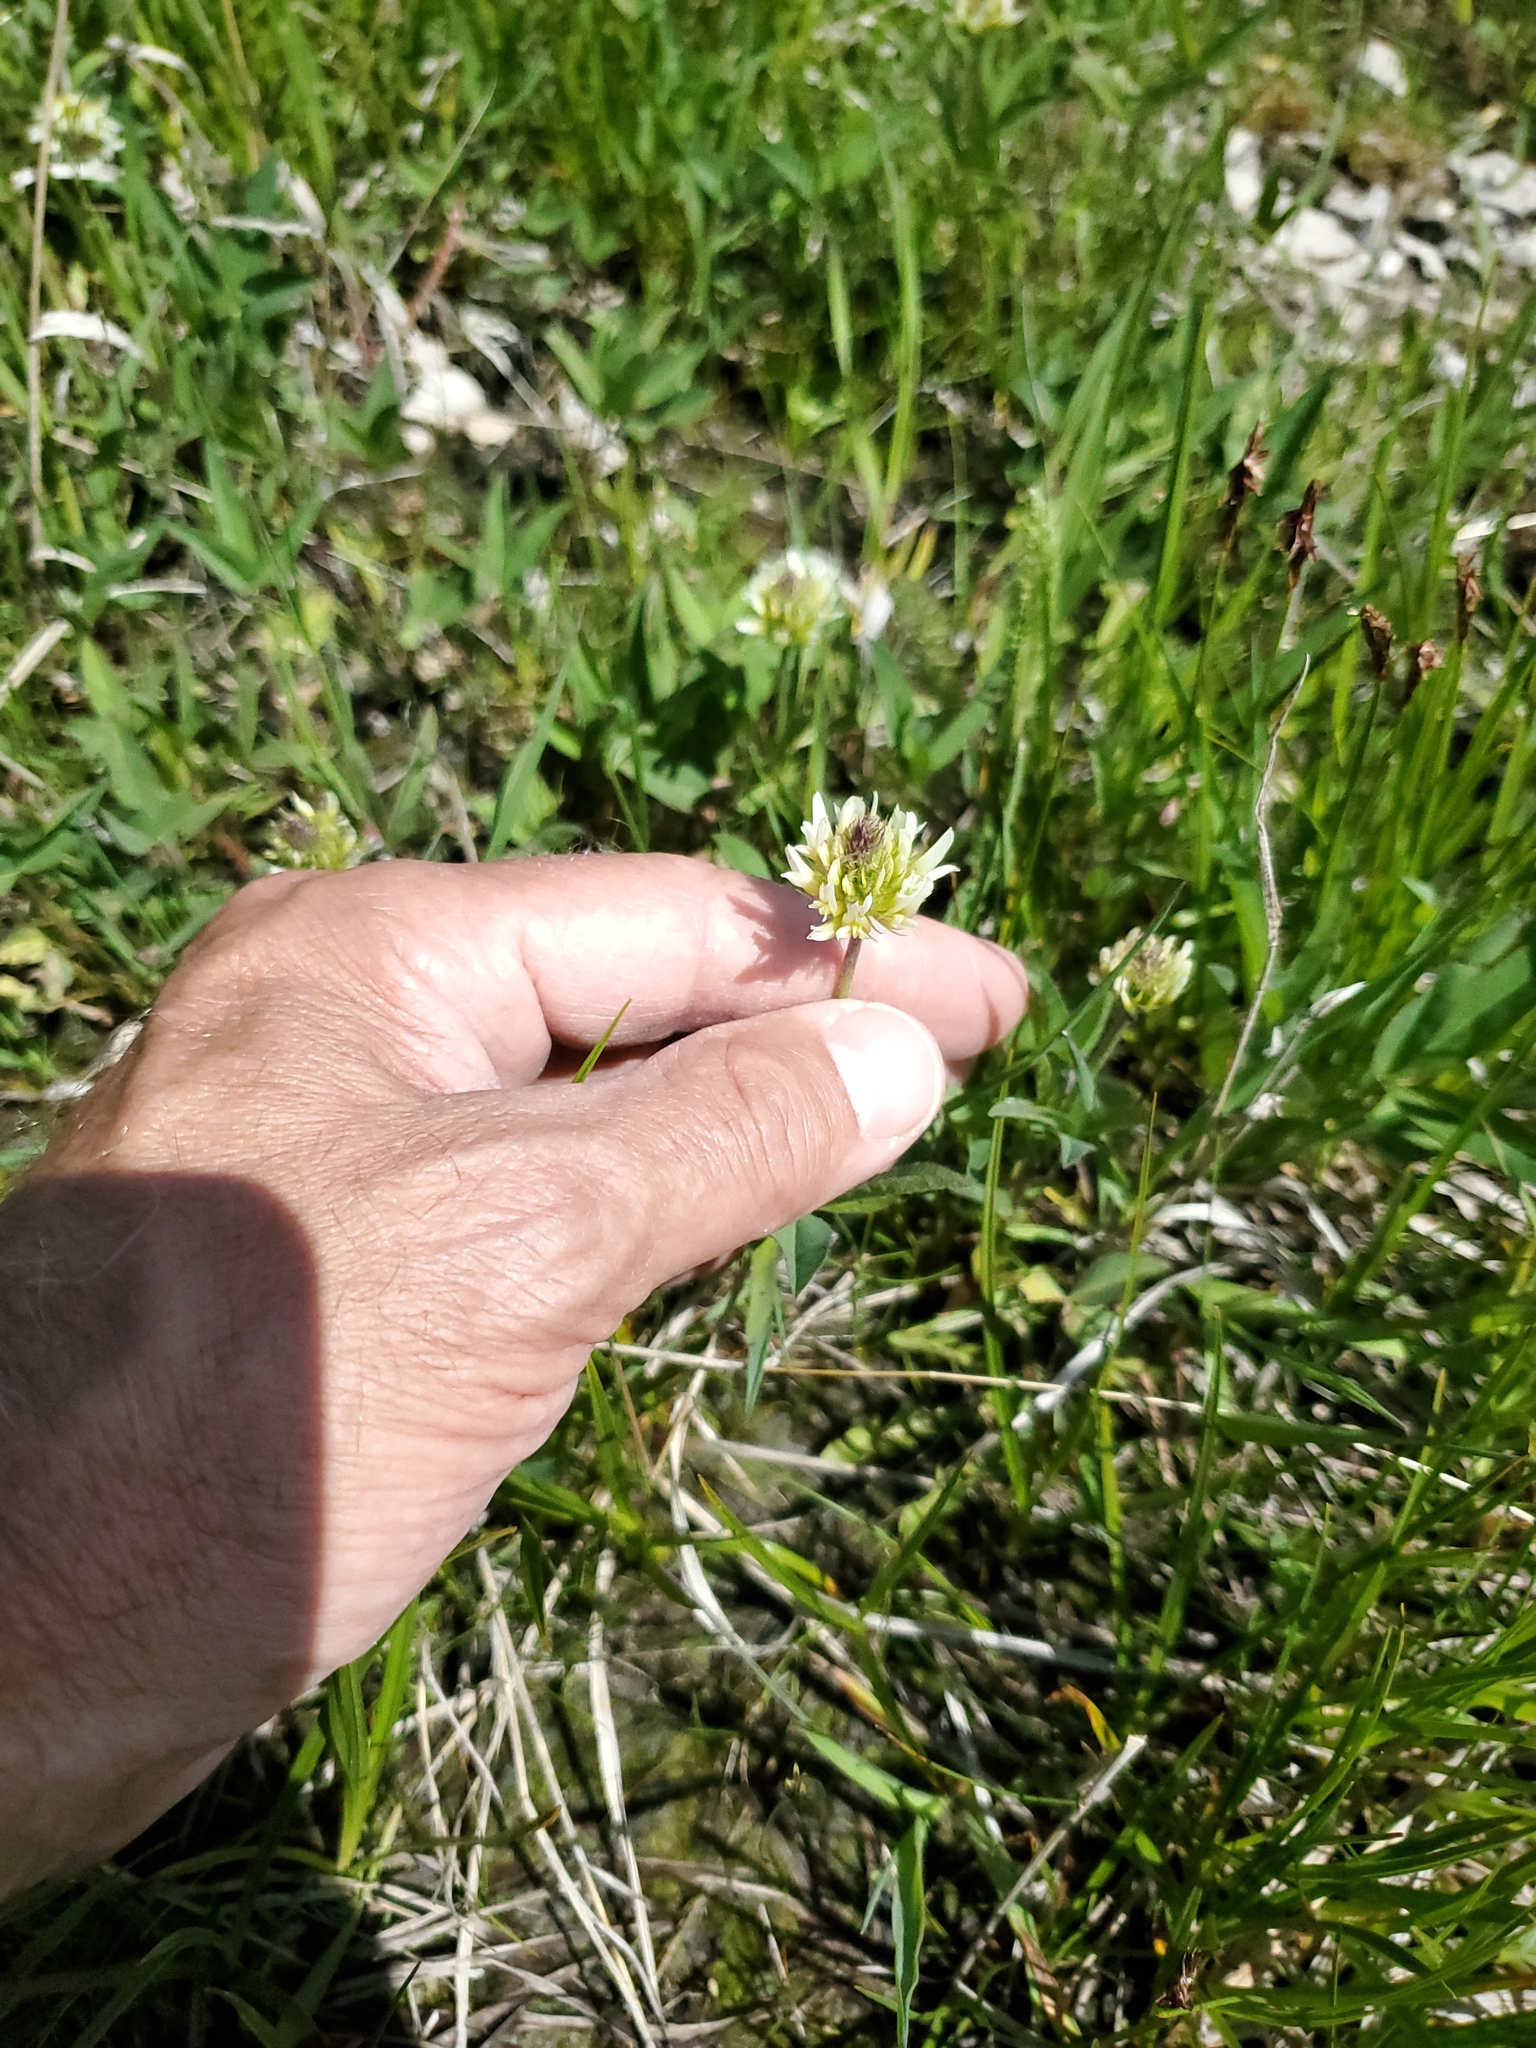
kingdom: Plantae
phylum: Tracheophyta
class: Magnoliopsida
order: Fabales
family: Fabaceae
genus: Trifolium
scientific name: Trifolium longipes
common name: Long-stalk clover
